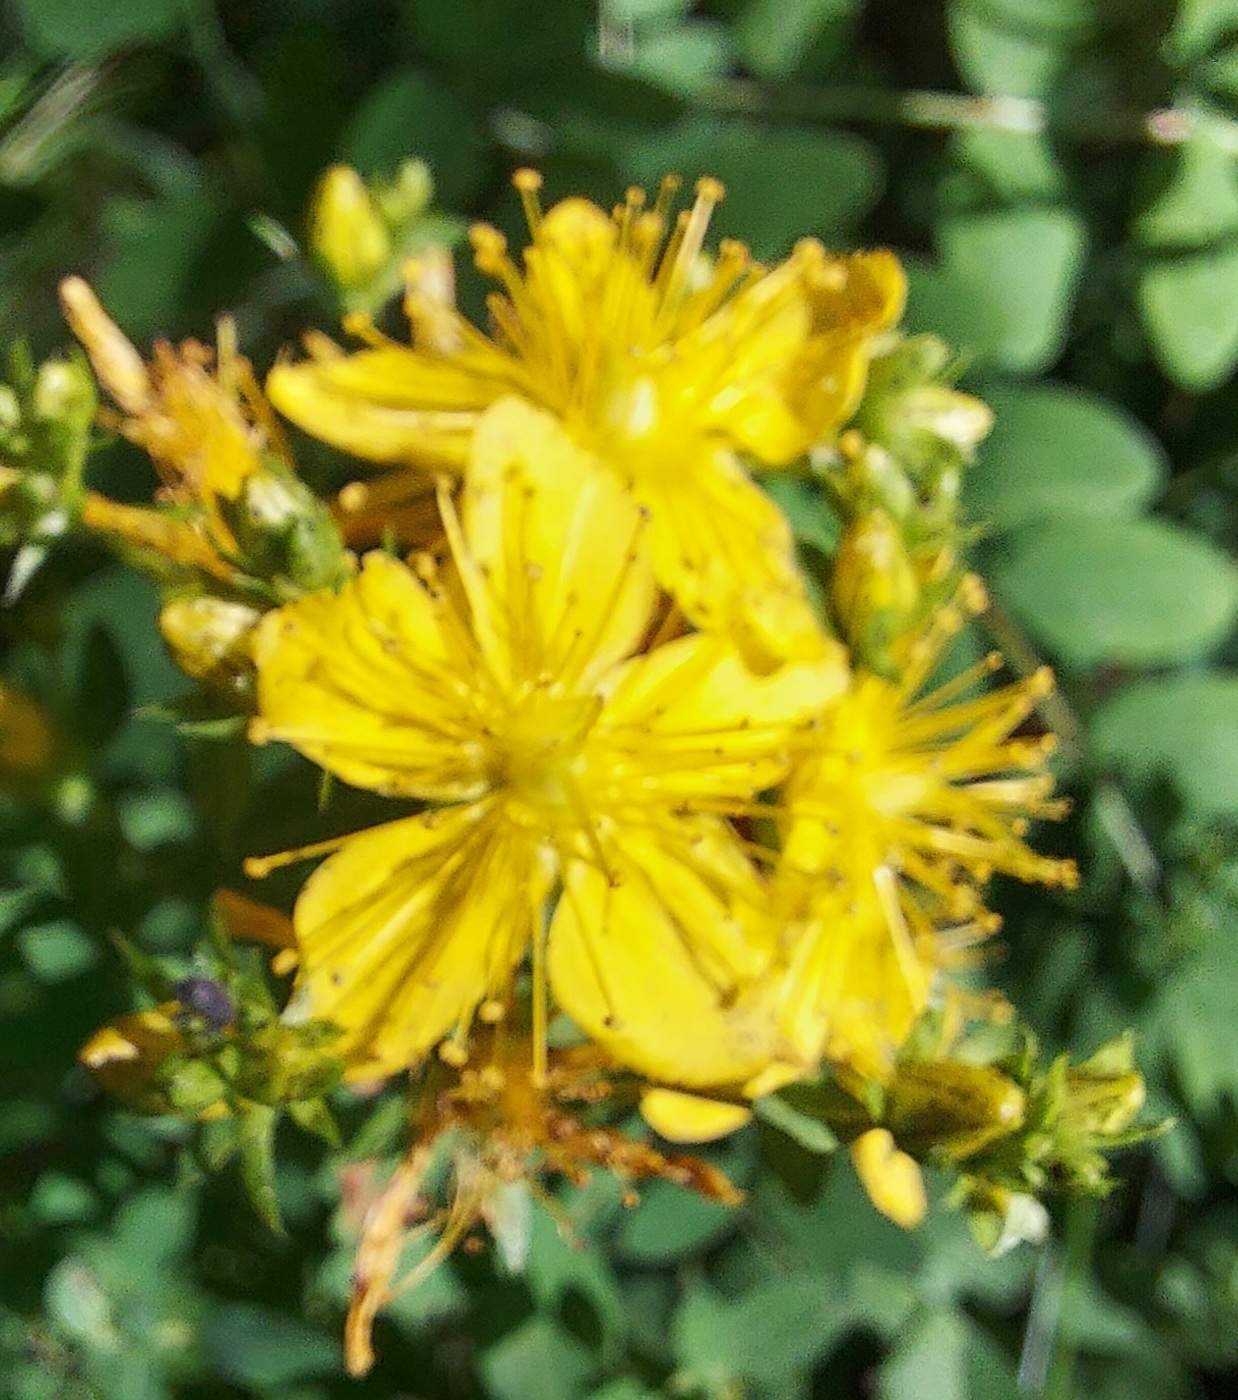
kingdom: Plantae
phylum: Tracheophyta
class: Magnoliopsida
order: Malpighiales
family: Hypericaceae
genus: Hypericum
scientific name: Hypericum perforatum
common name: Common st. johnswort
